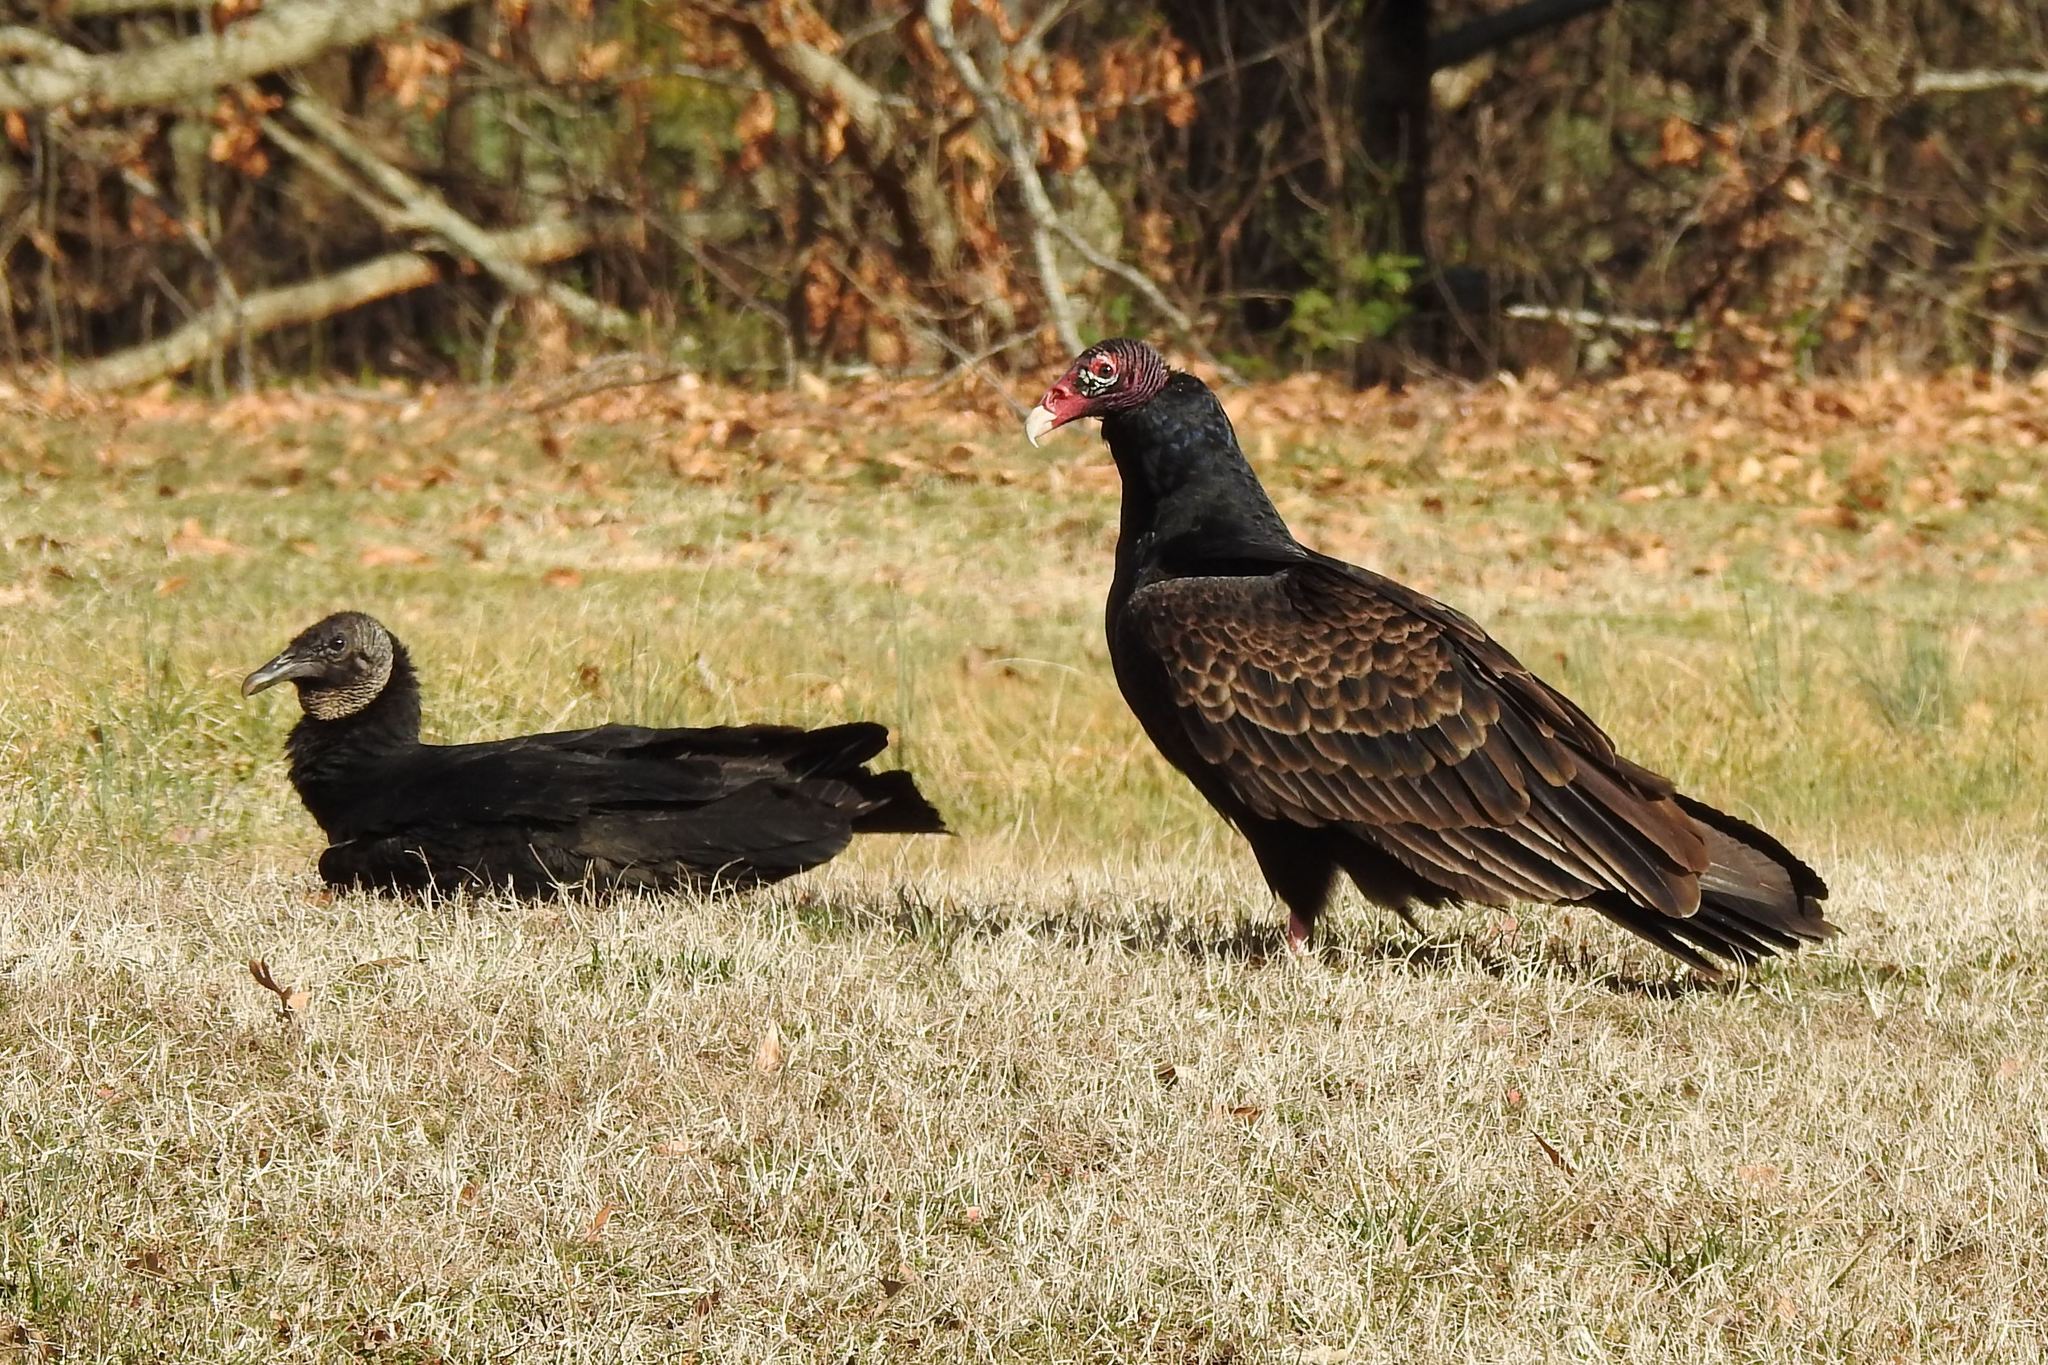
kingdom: Animalia
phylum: Chordata
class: Aves
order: Accipitriformes
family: Cathartidae
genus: Coragyps
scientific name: Coragyps atratus
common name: Black vulture
